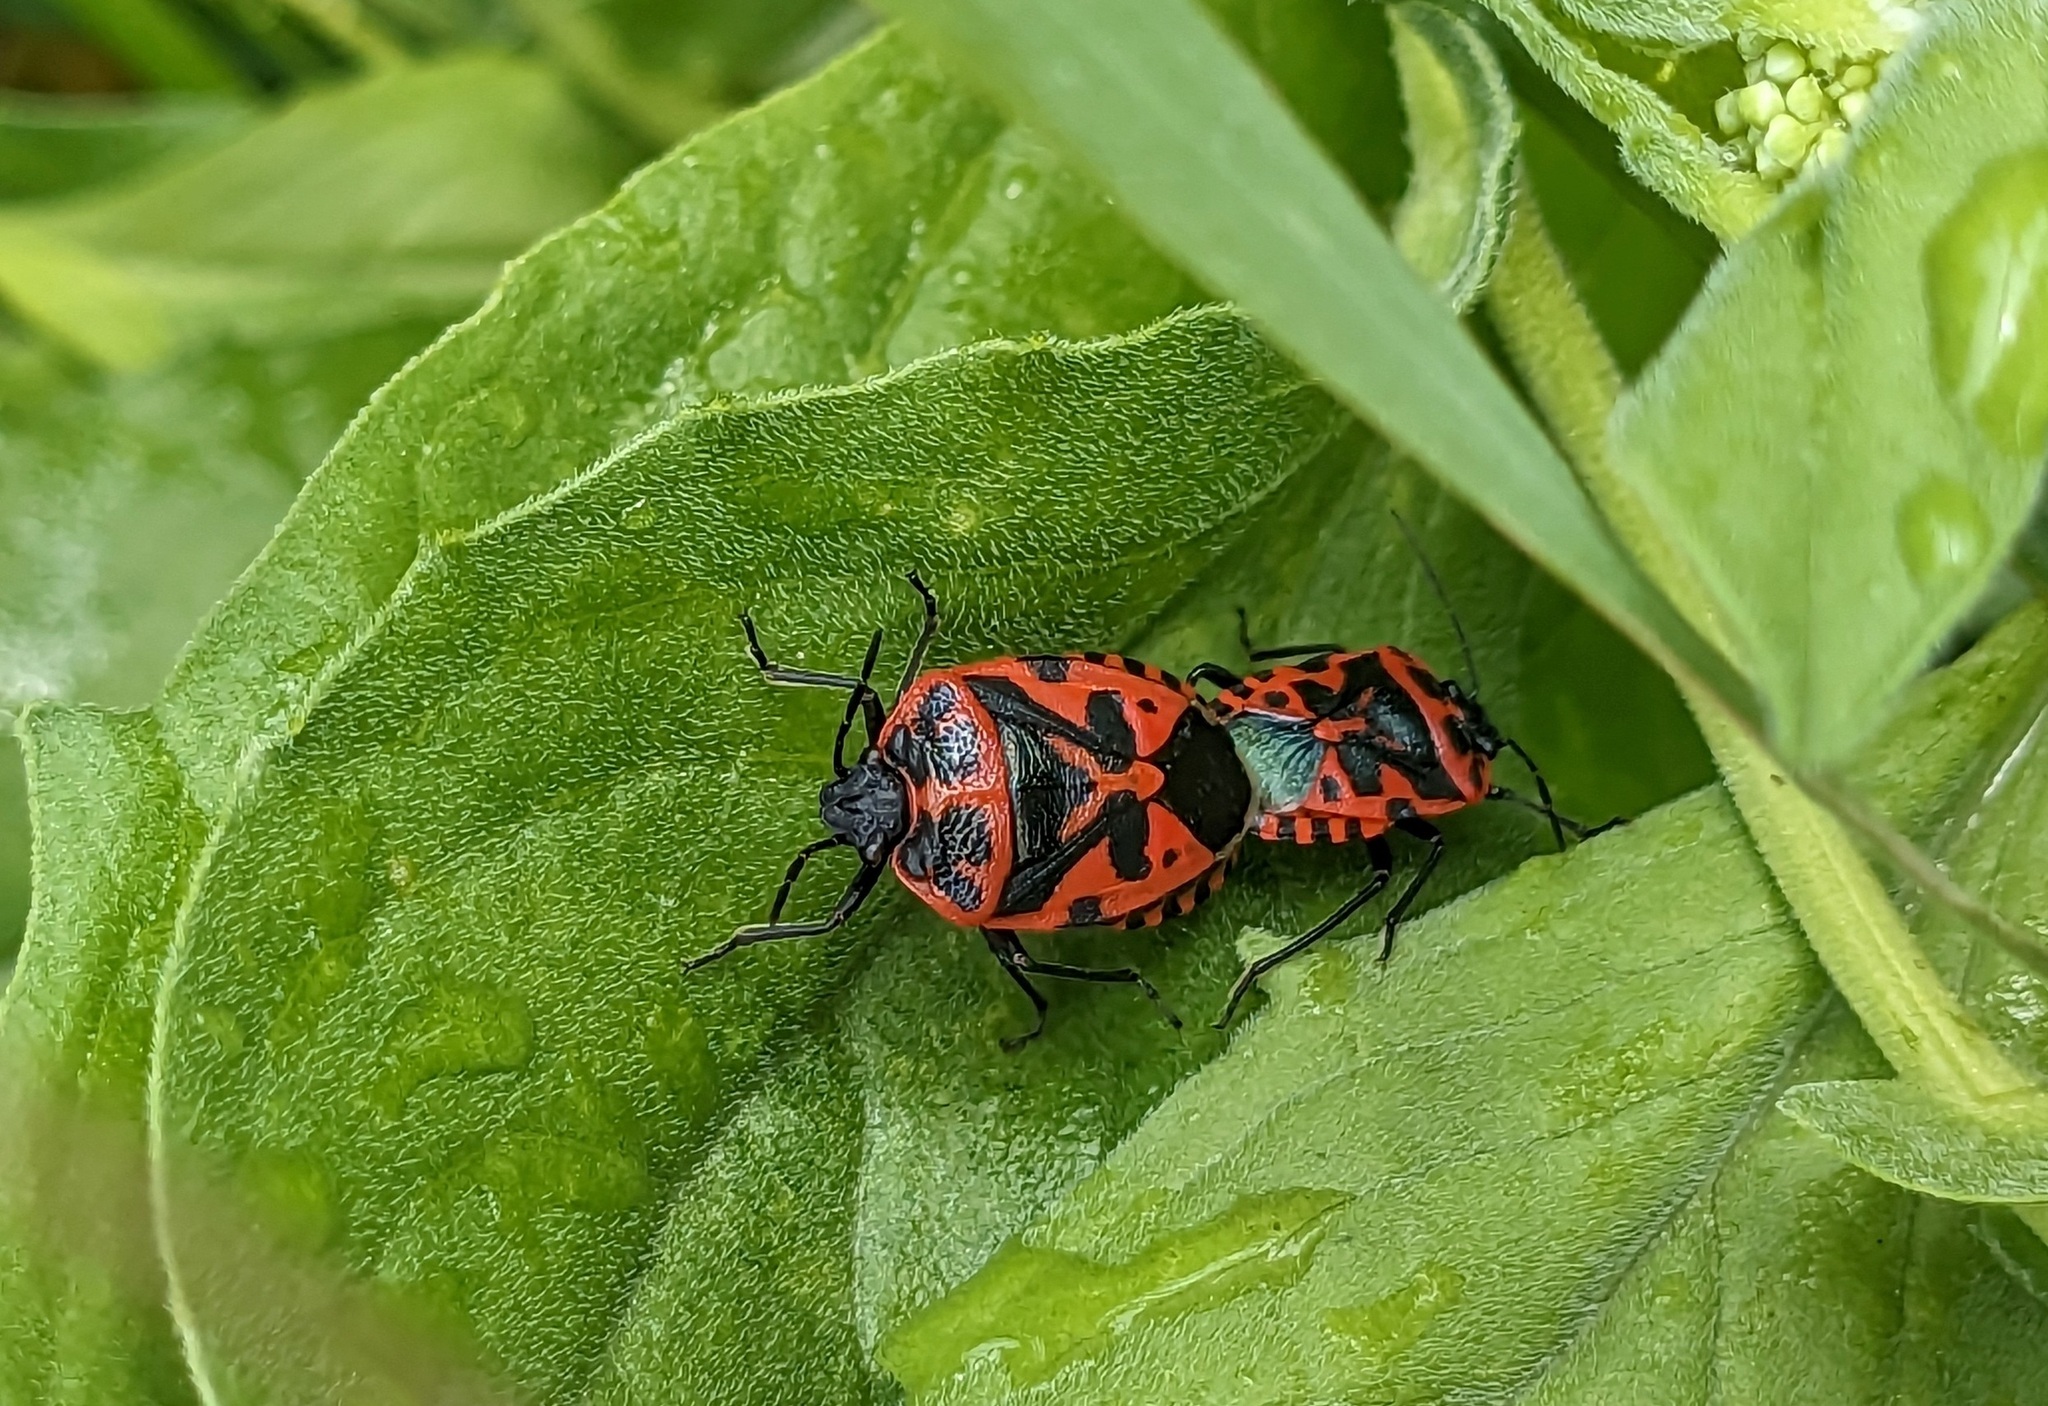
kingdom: Animalia
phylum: Arthropoda
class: Insecta
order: Hemiptera
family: Pentatomidae
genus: Eurydema
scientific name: Eurydema ventralis
